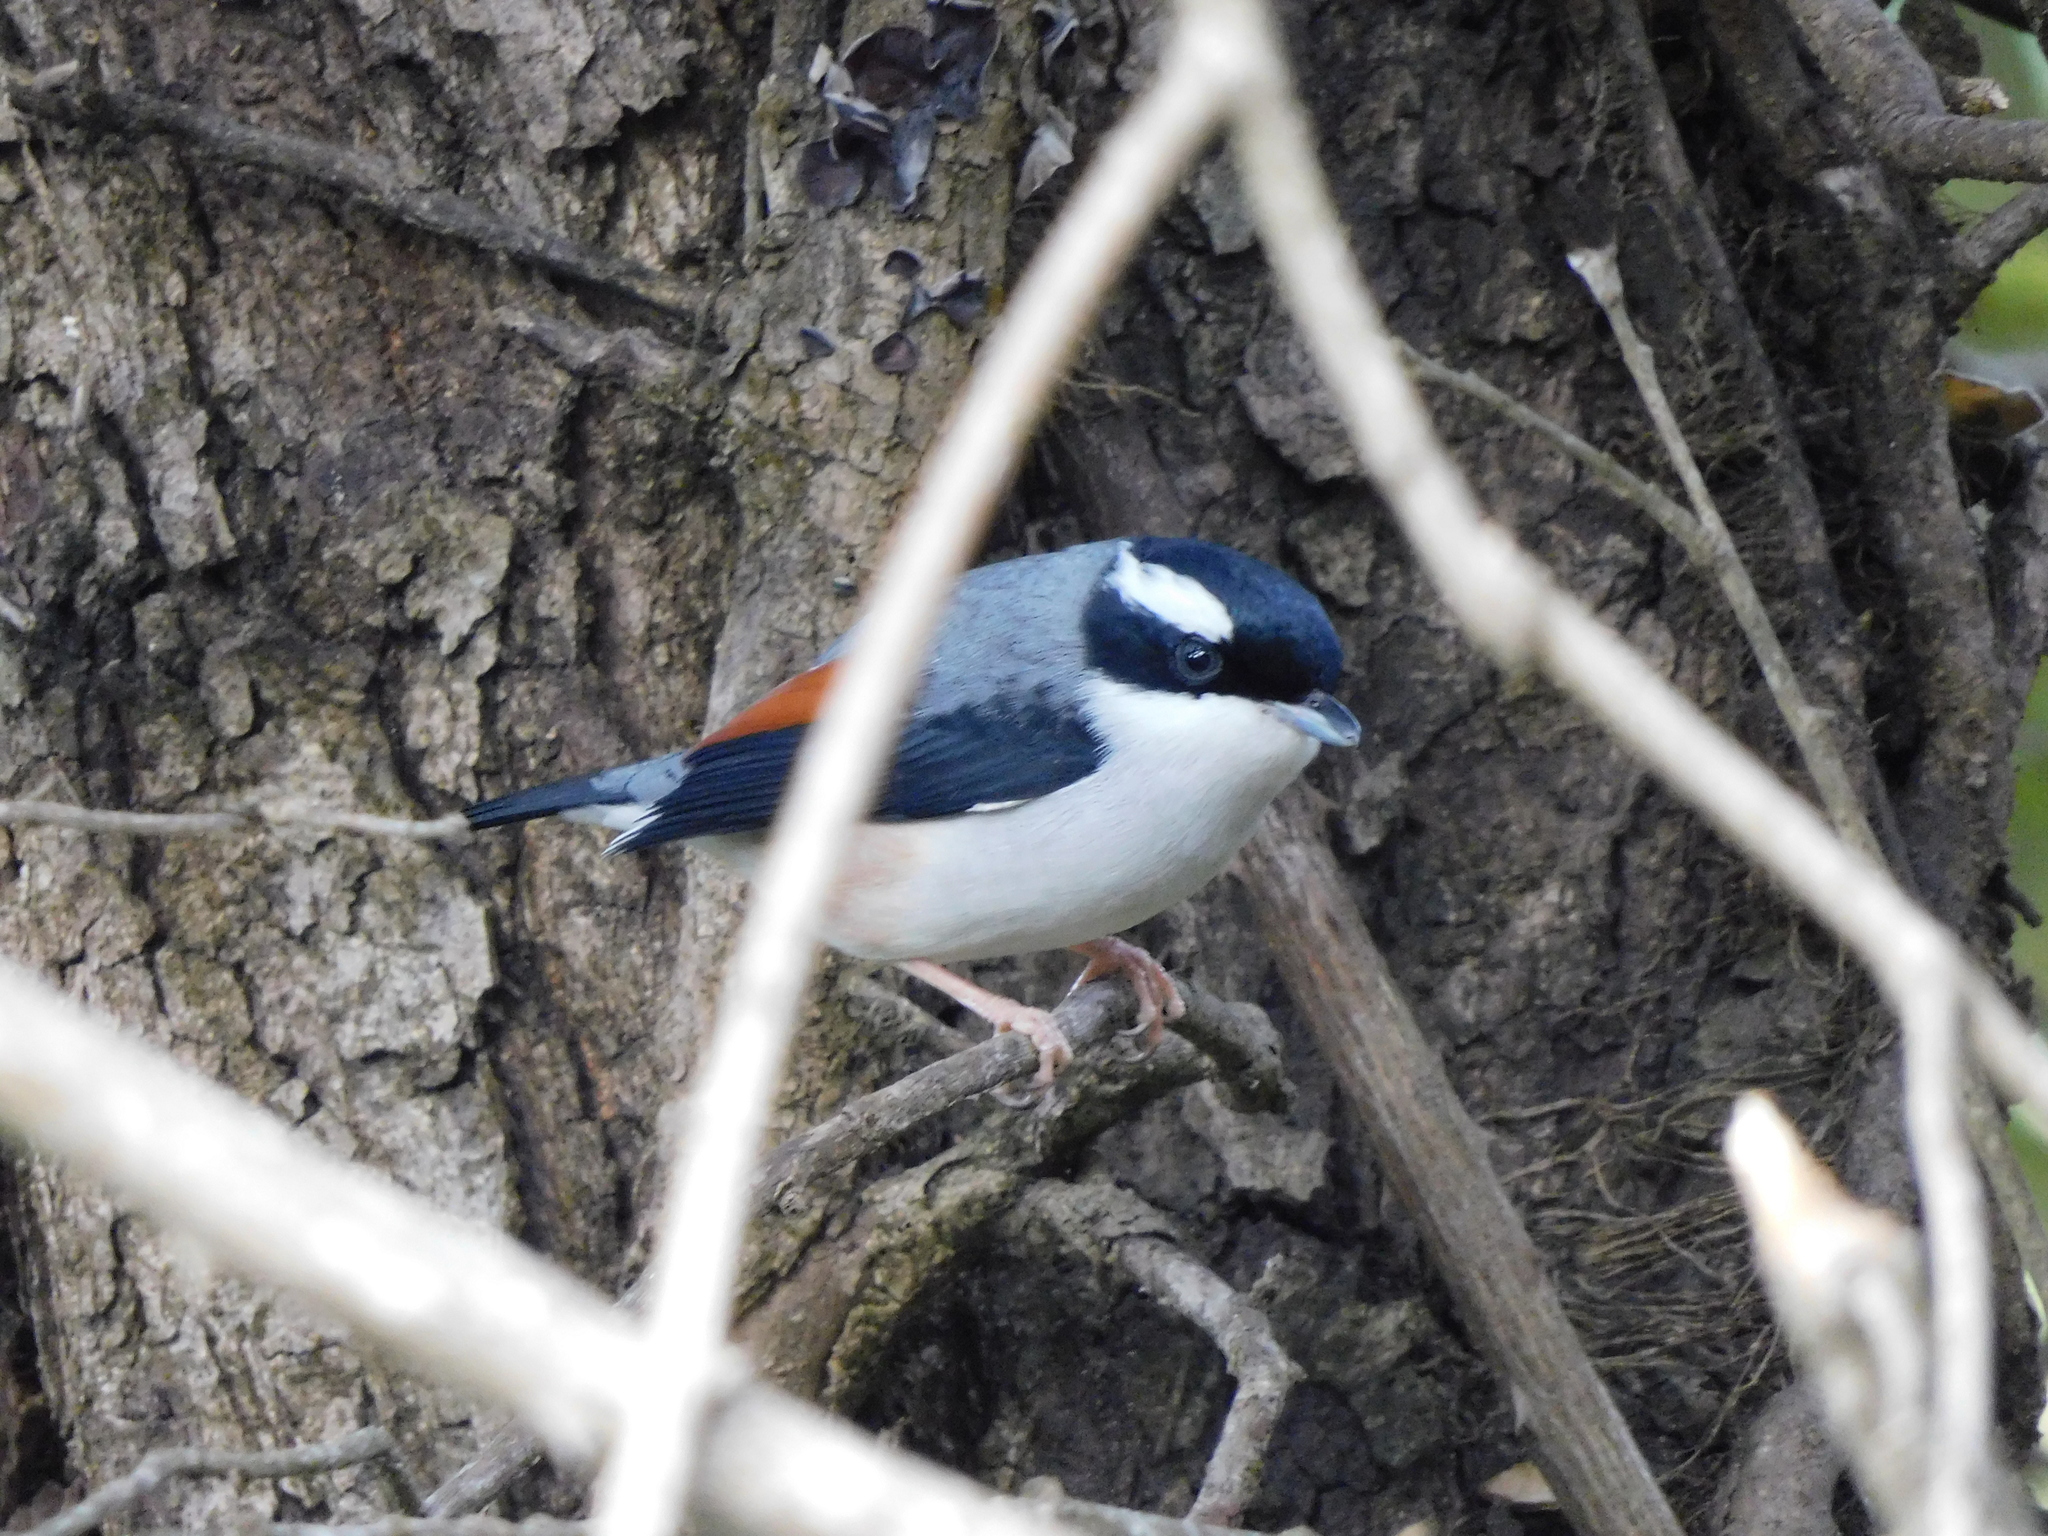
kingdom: Animalia
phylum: Chordata
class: Aves
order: Passeriformes
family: Vireonidae
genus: Pteruthius
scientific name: Pteruthius aeralatus
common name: Blyth's shrike-babbler
